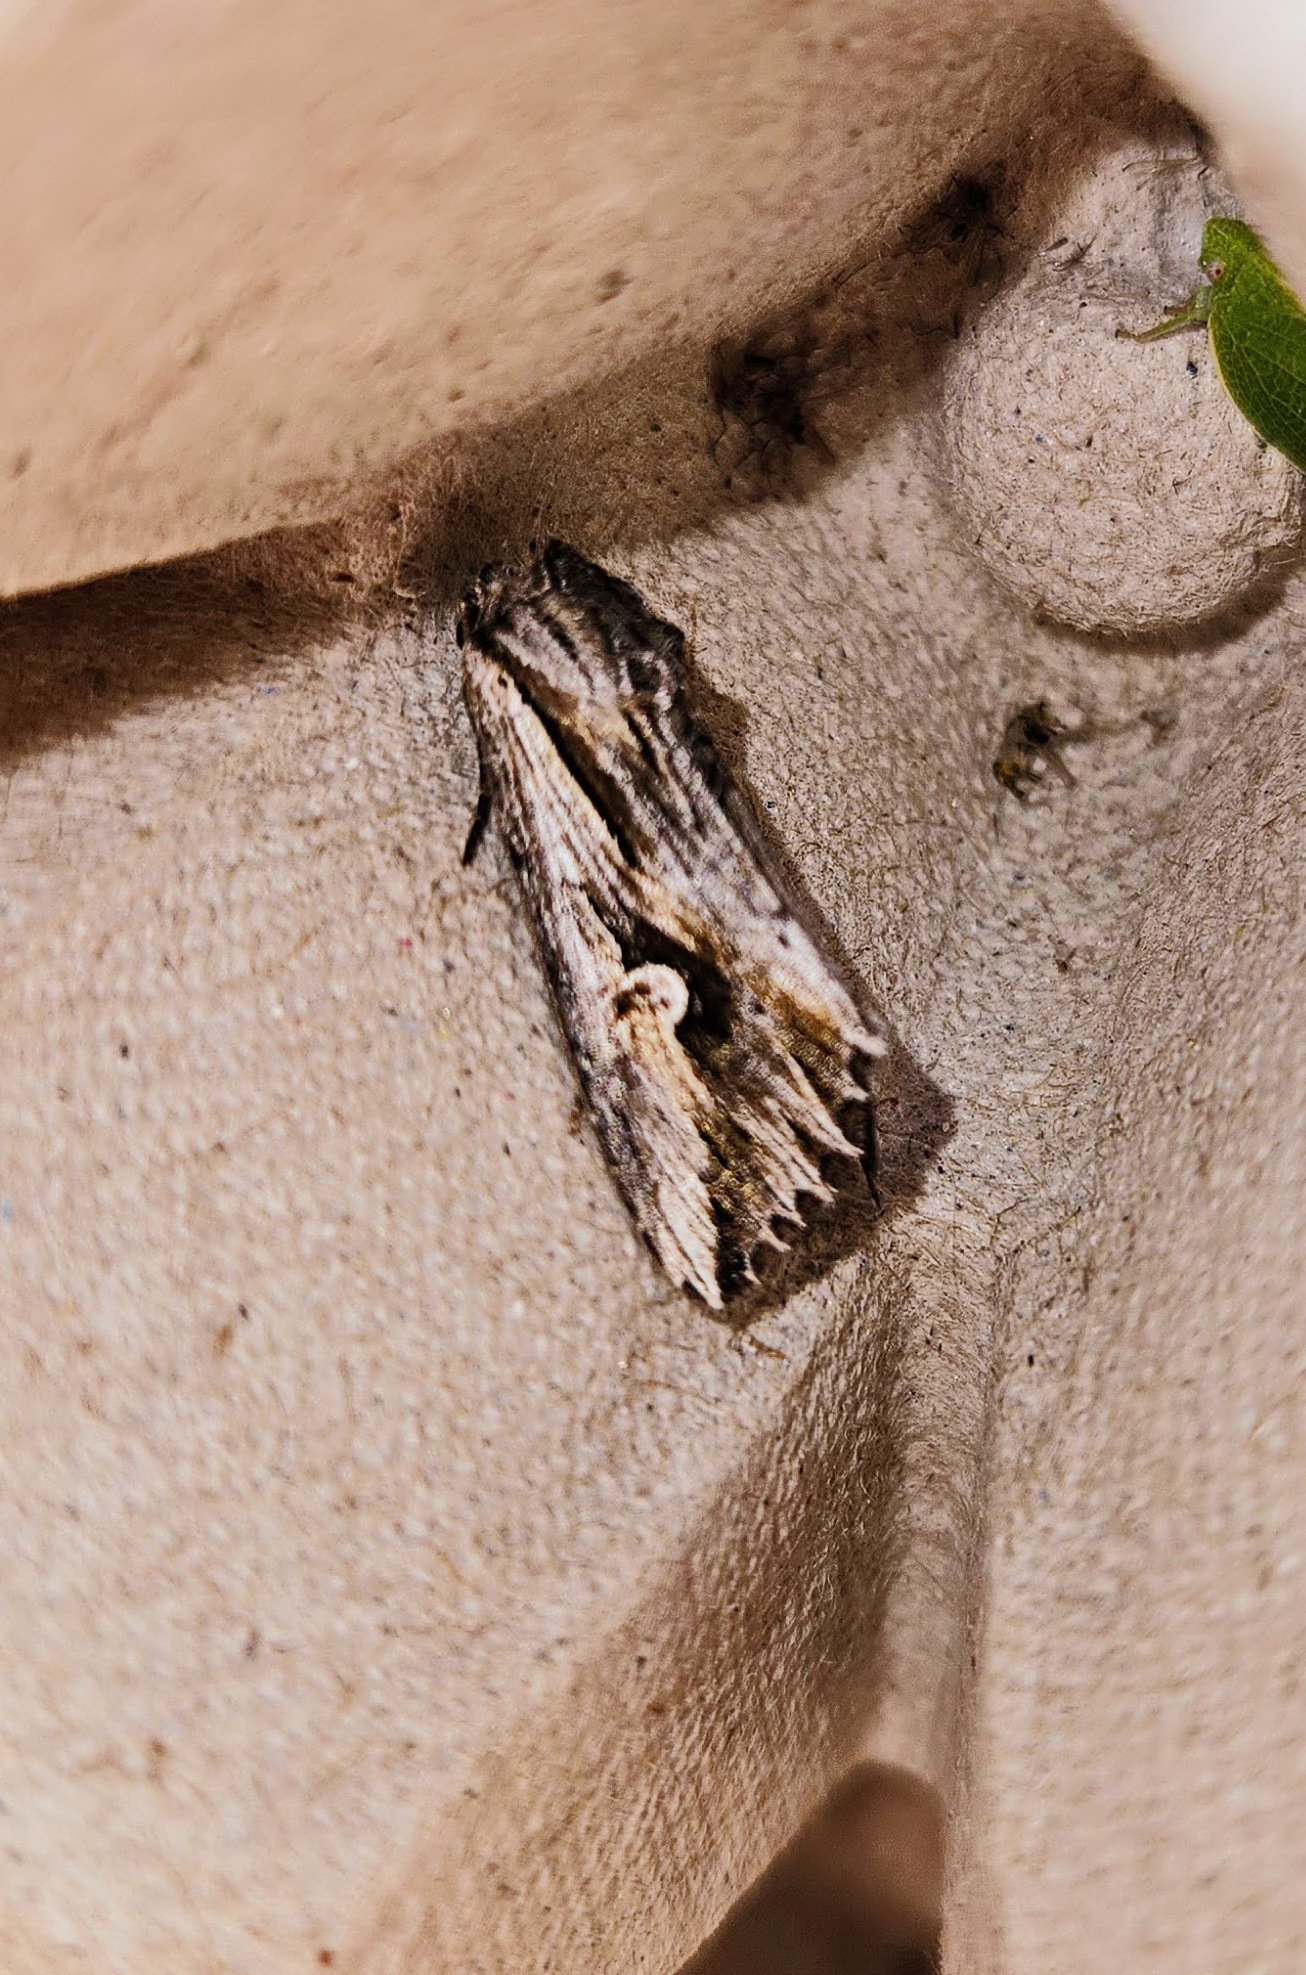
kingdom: Animalia
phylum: Arthropoda
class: Insecta
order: Lepidoptera
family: Noctuidae
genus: Nedra
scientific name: Nedra ramosula
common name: Gray half-spot
